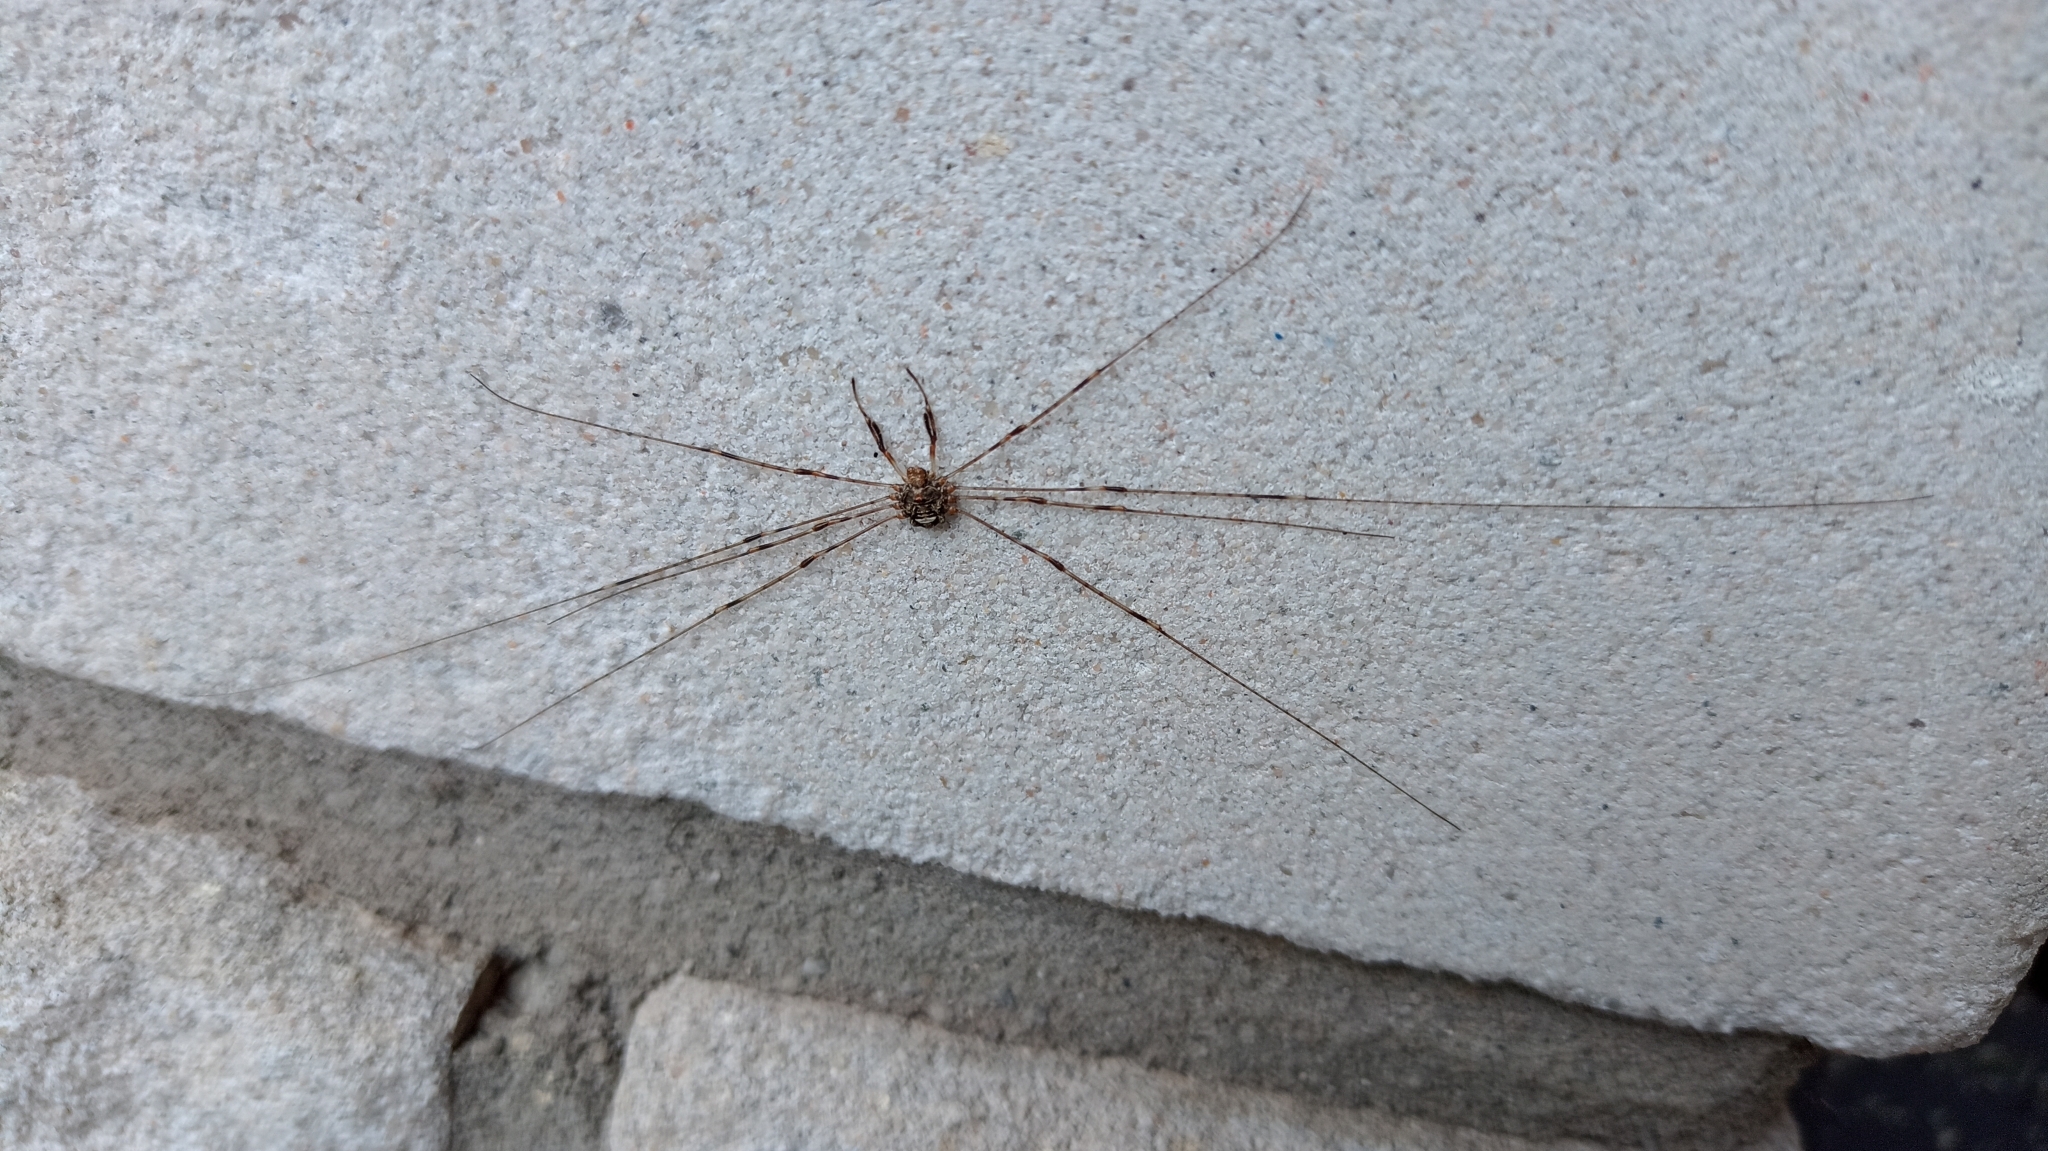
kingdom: Animalia
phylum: Arthropoda
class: Arachnida
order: Opiliones
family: Phalangiidae
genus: Dicranopalpus
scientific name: Dicranopalpus ramosus
